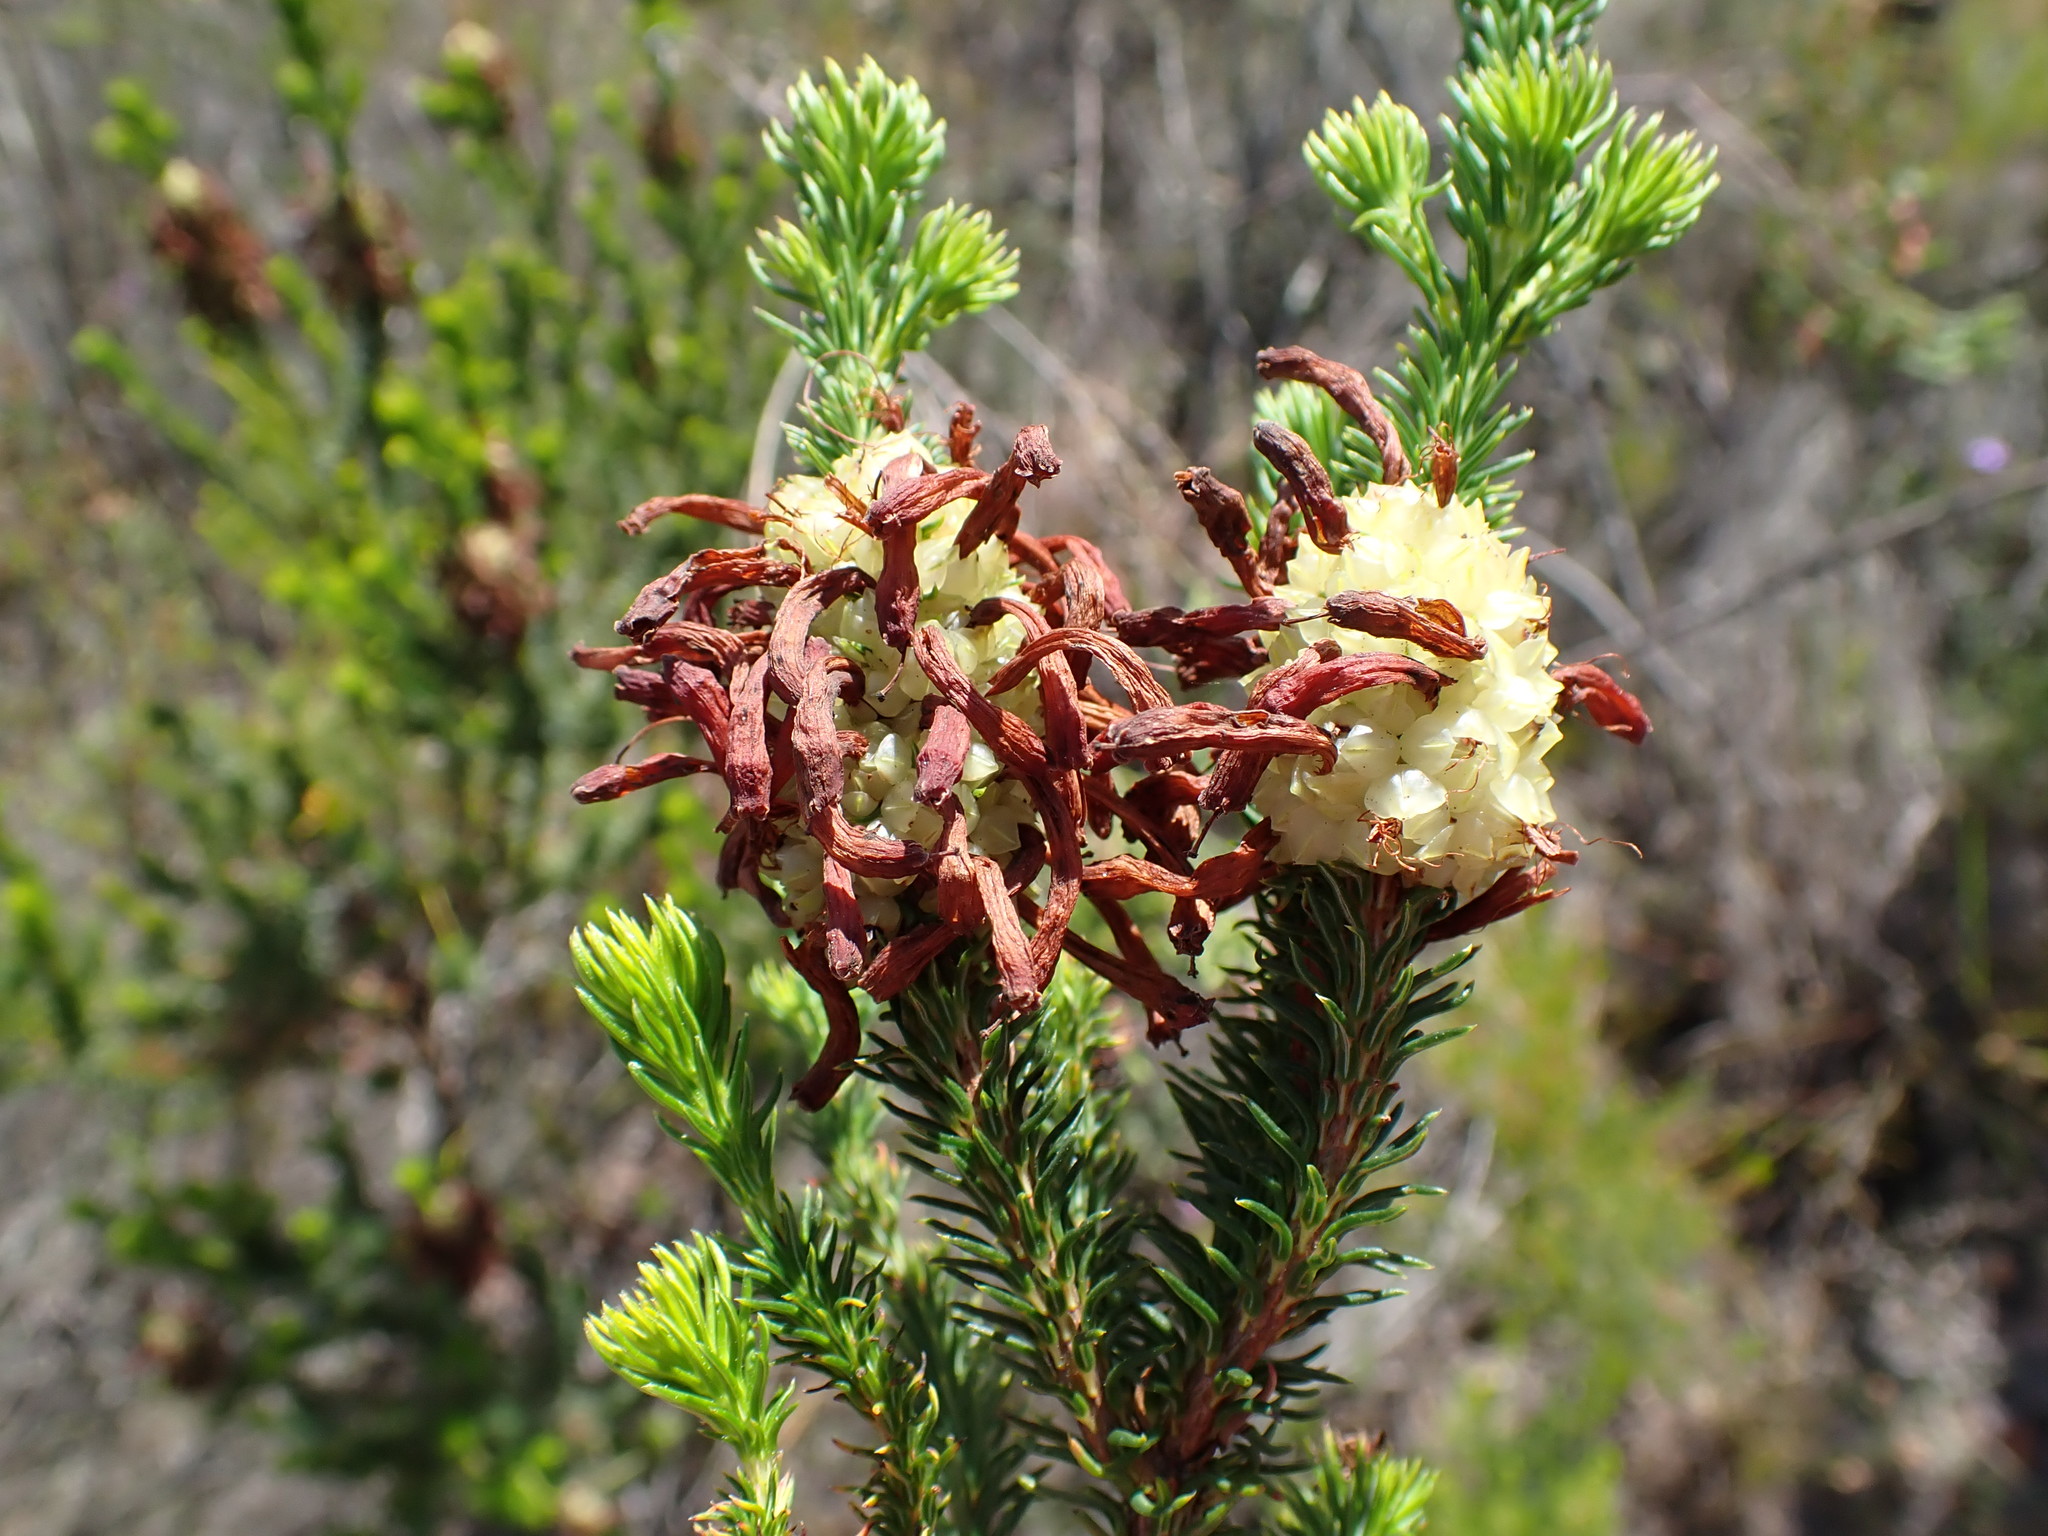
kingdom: Plantae
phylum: Tracheophyta
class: Magnoliopsida
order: Ericales
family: Ericaceae
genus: Erica
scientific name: Erica sessiliflora
